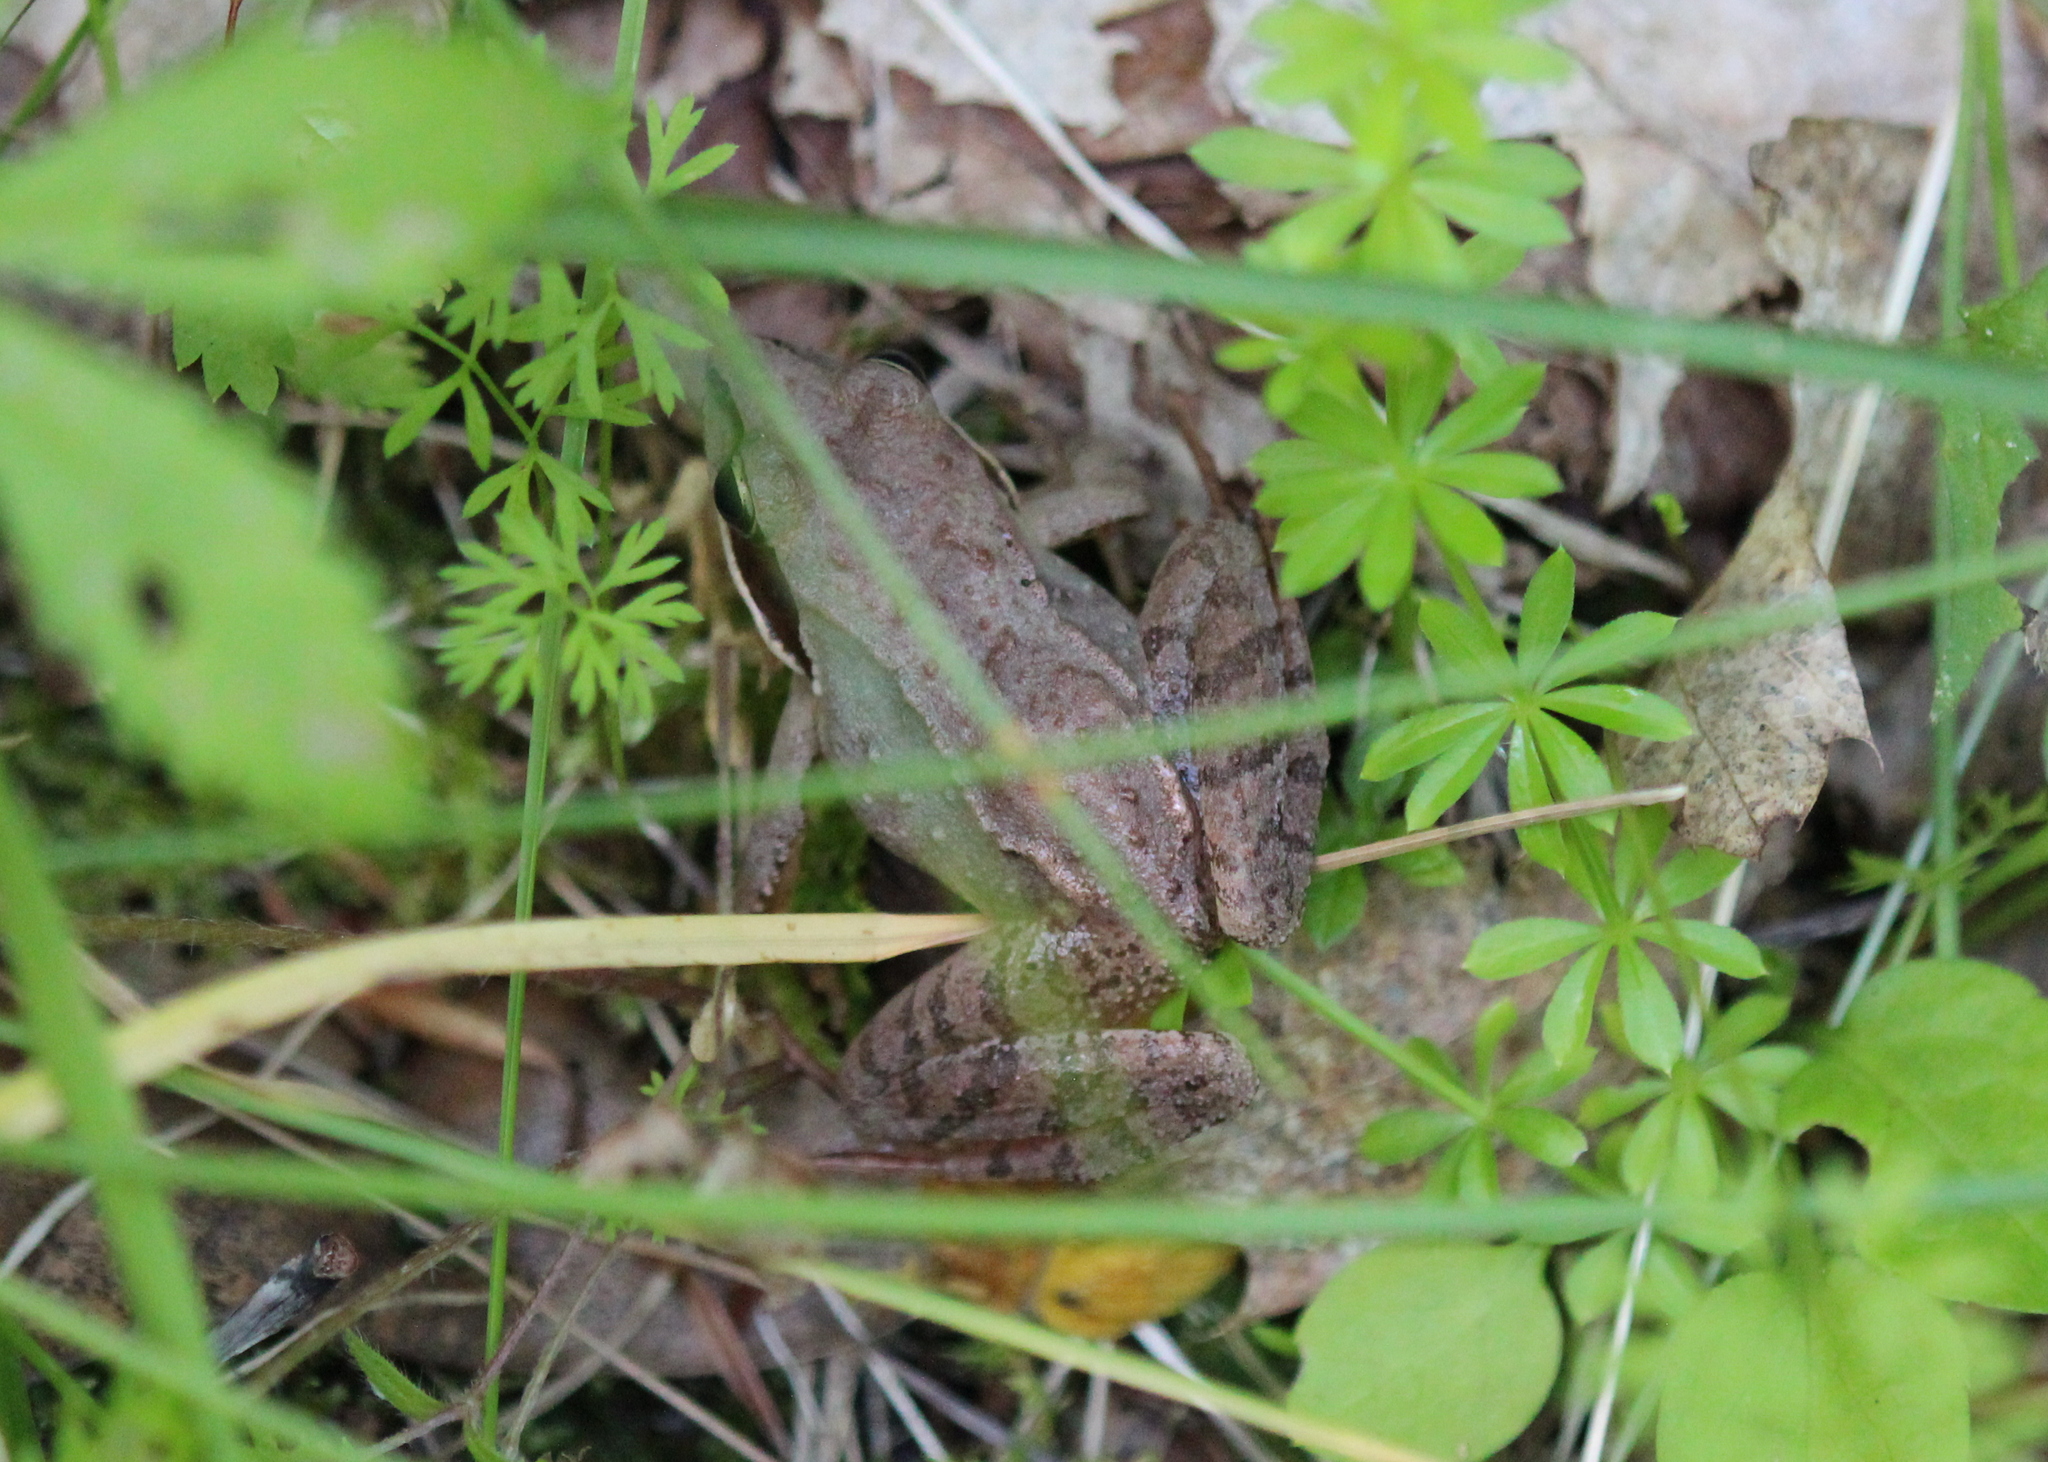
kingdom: Animalia
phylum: Chordata
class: Amphibia
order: Anura
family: Ranidae
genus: Lithobates
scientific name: Lithobates sylvaticus
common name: Wood frog
